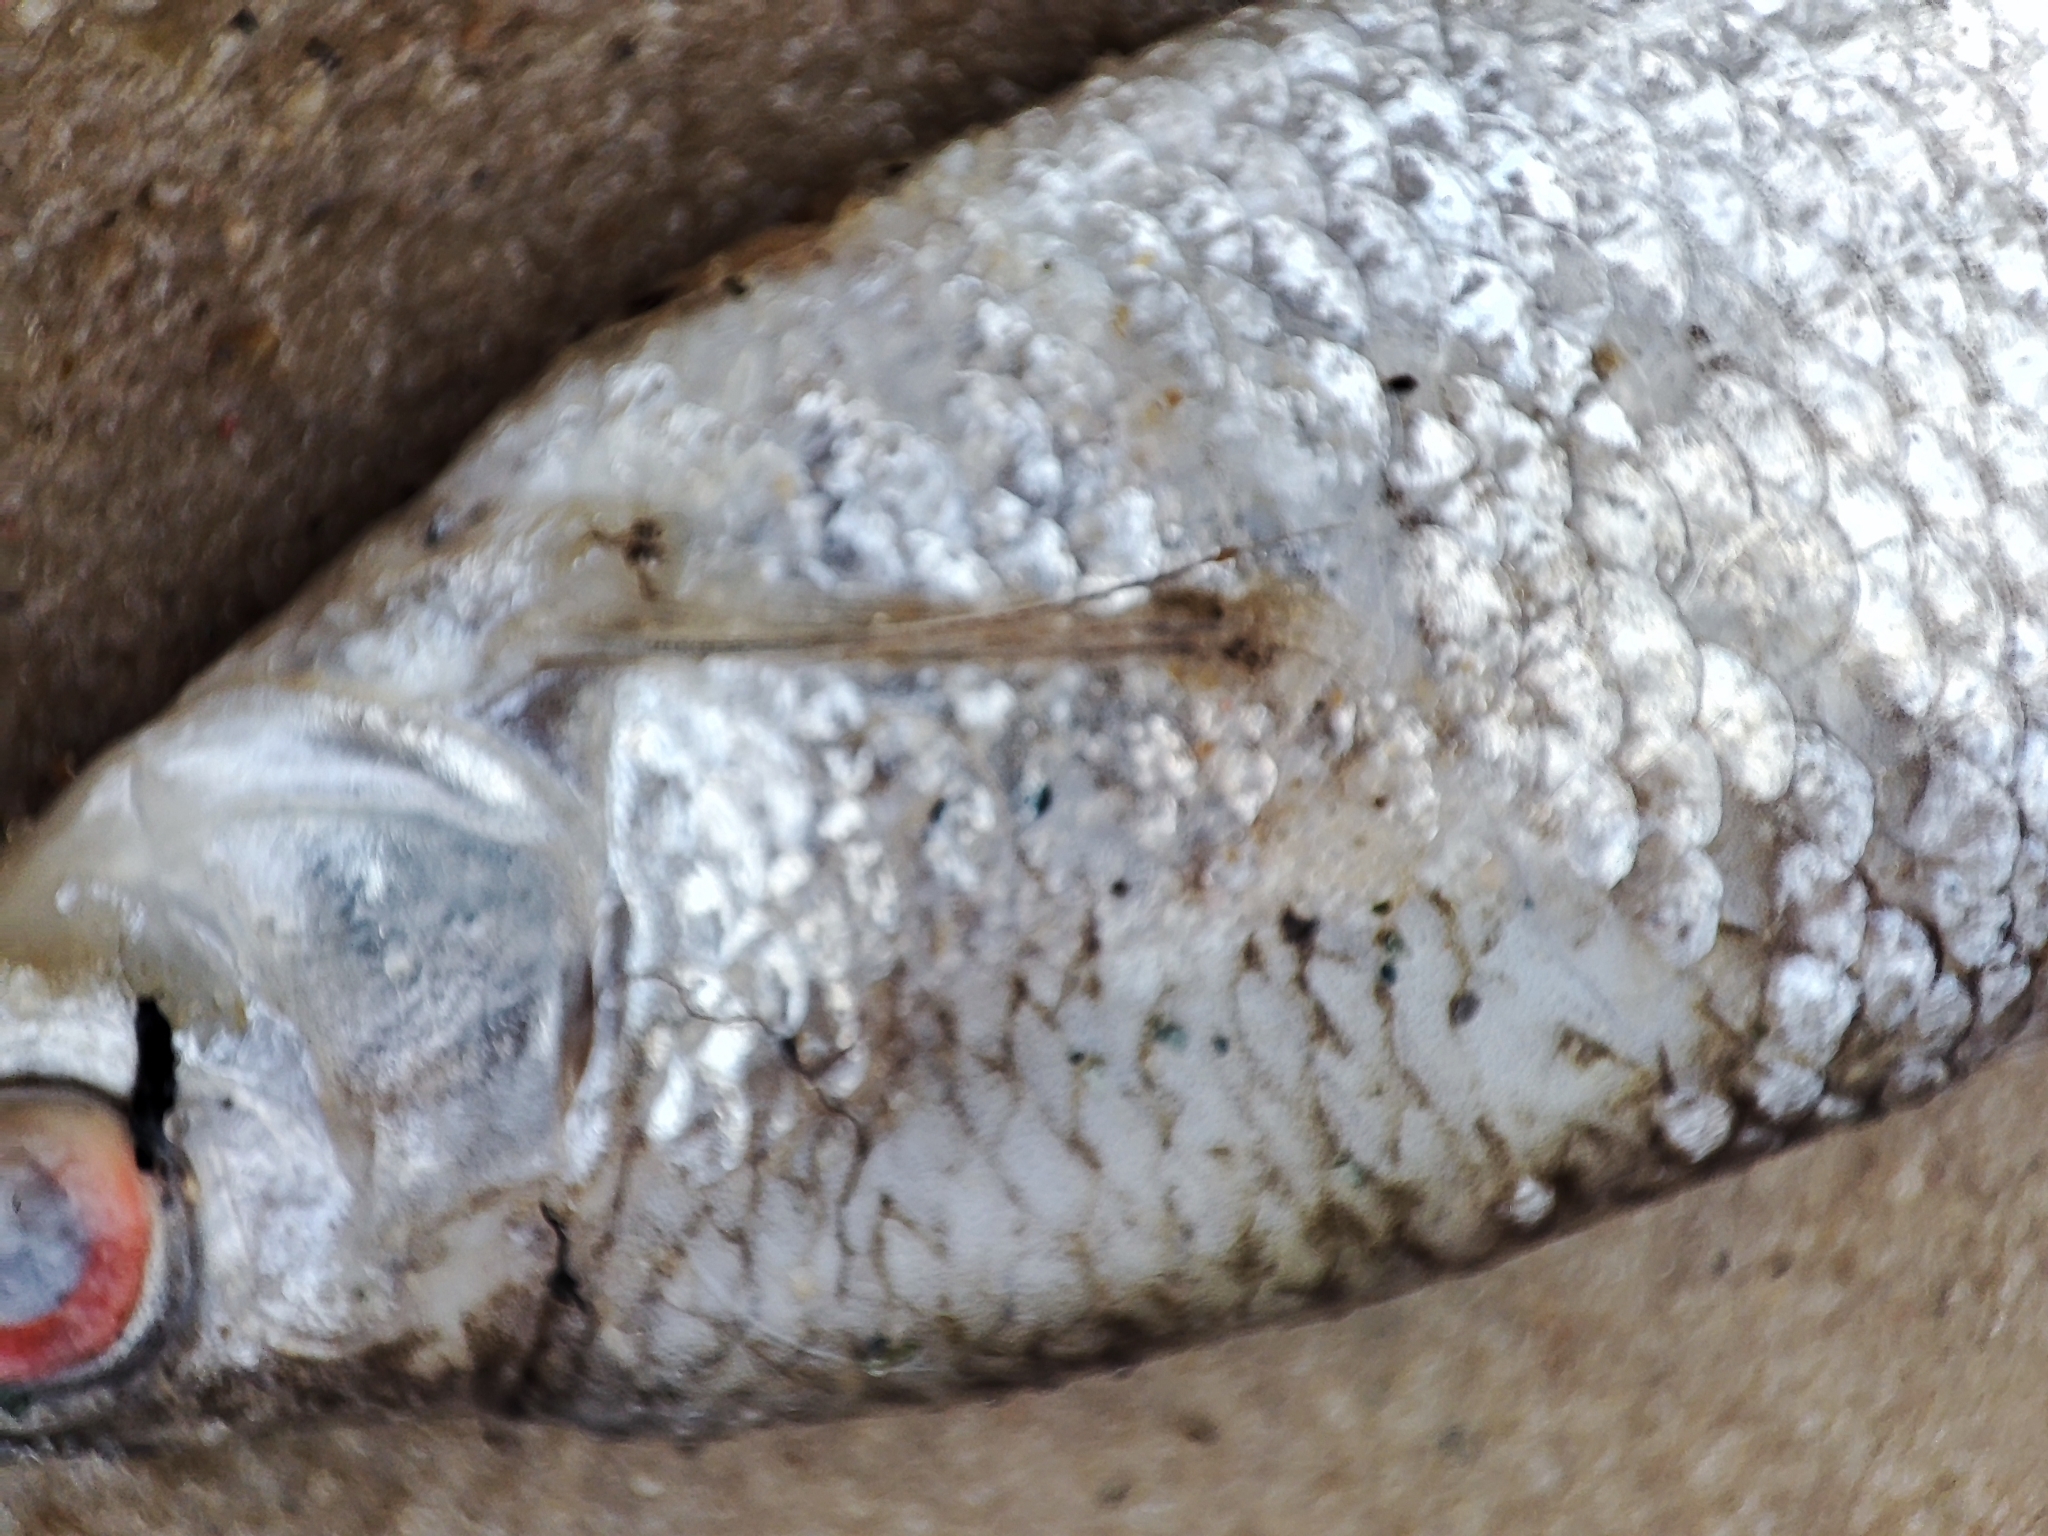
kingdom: Animalia
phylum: Chordata
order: Cypriniformes
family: Cyprinidae
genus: Rutilus
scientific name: Rutilus rutilus
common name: Roach
